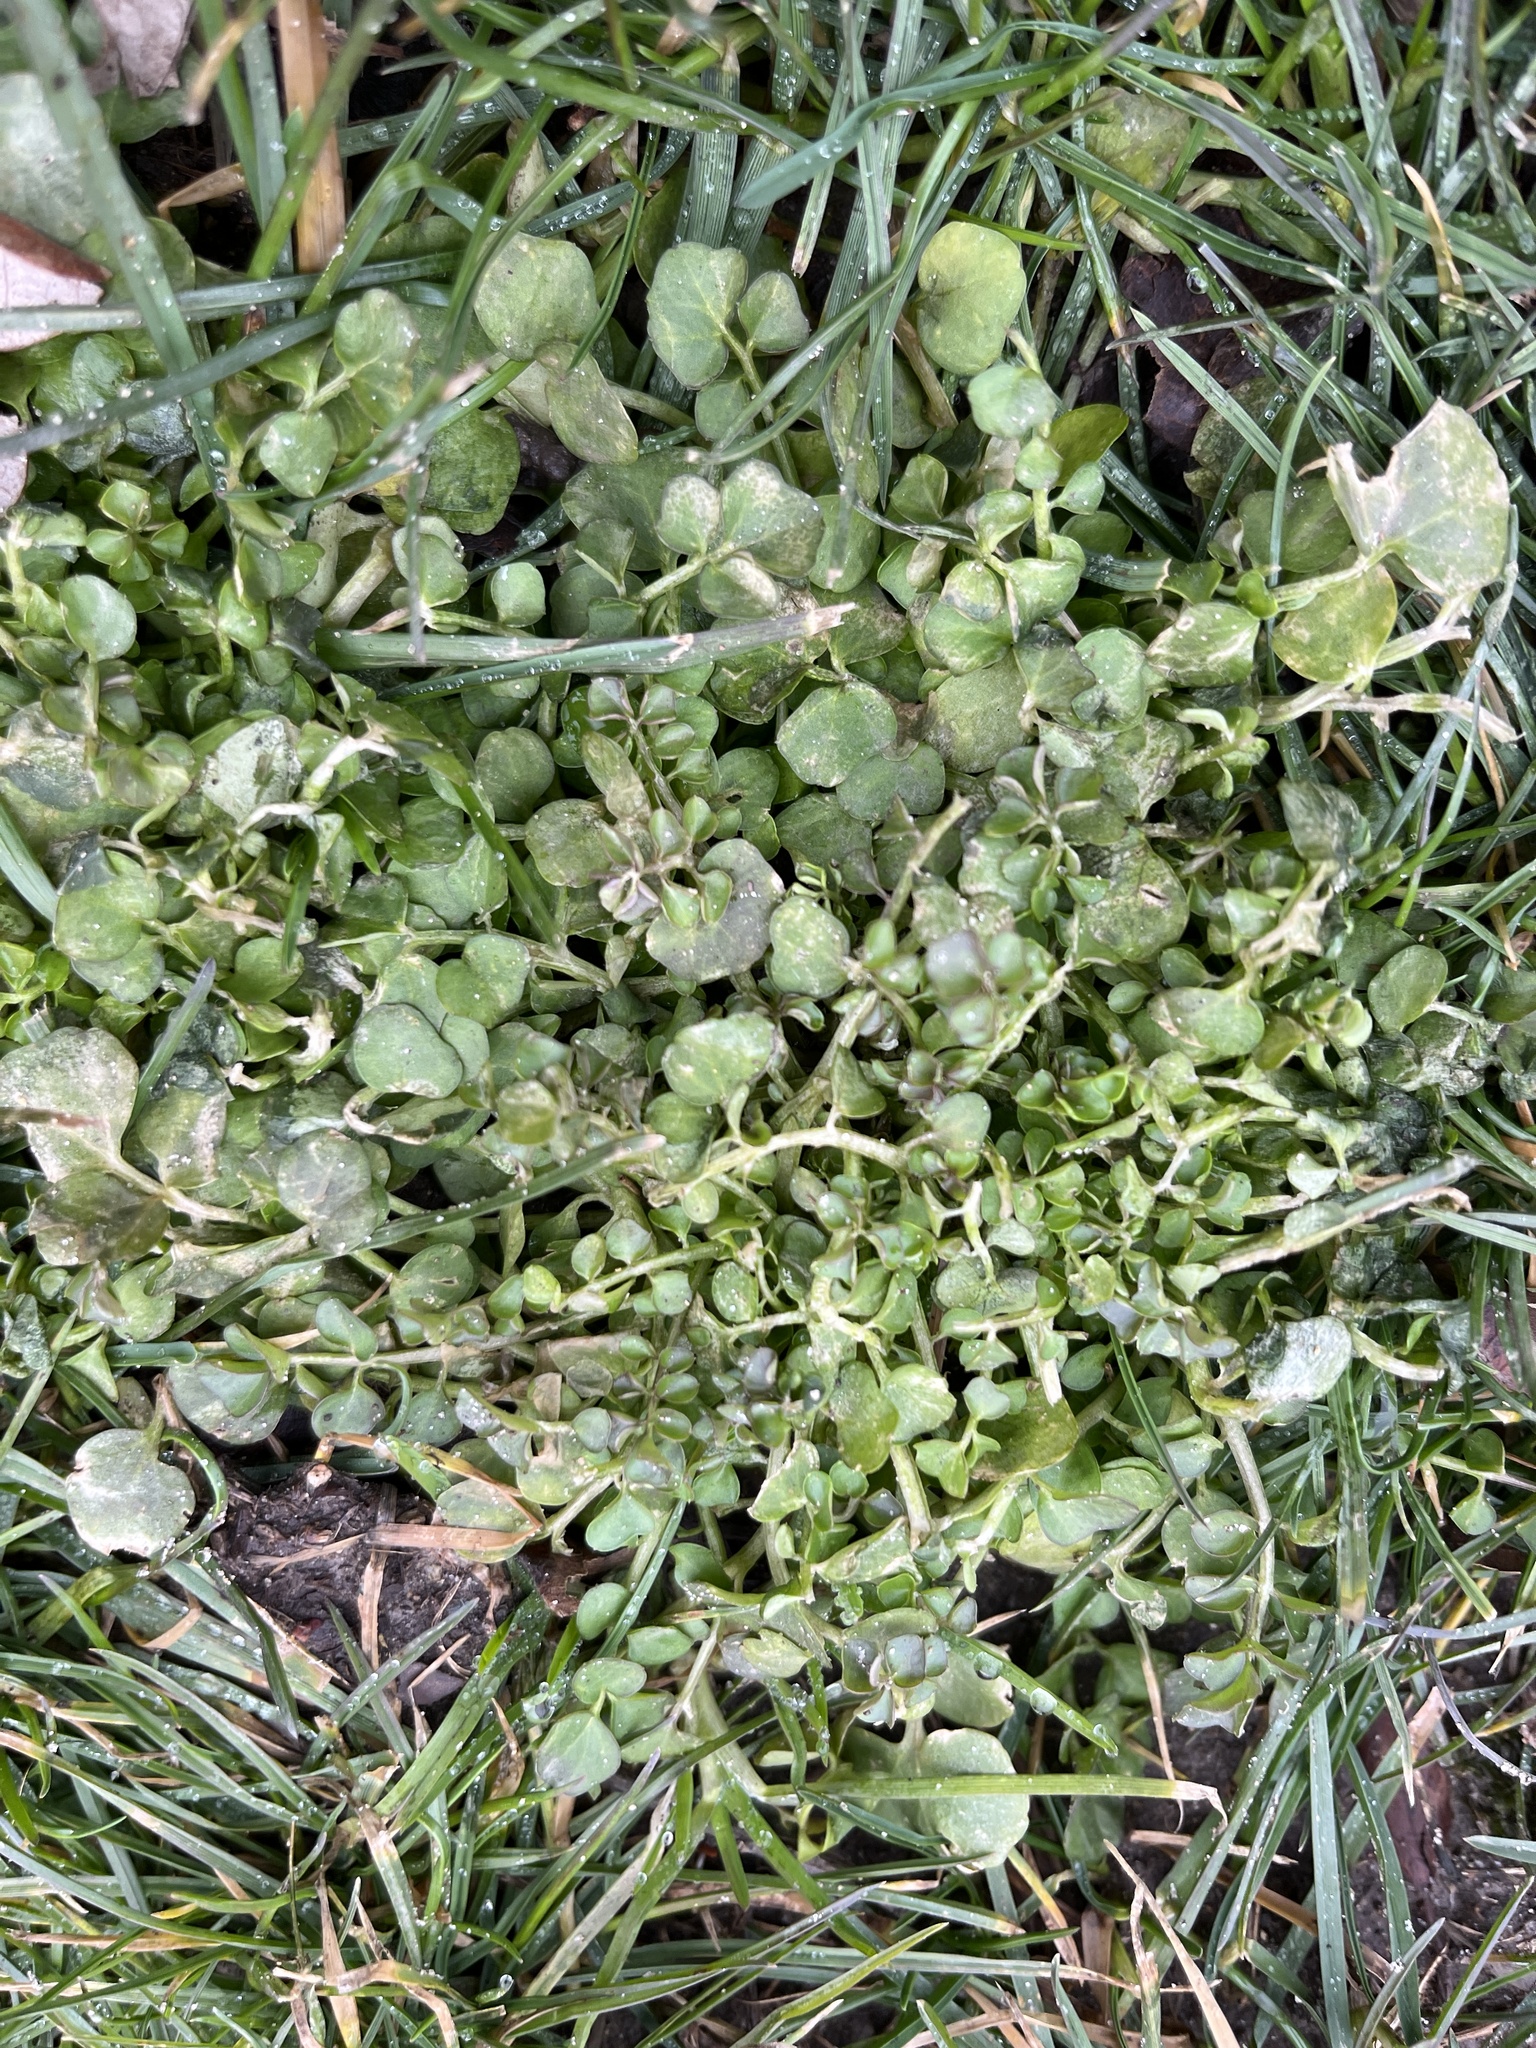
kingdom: Plantae
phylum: Tracheophyta
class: Magnoliopsida
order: Brassicales
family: Brassicaceae
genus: Cardamine
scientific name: Cardamine hirsuta
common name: Hairy bittercress
